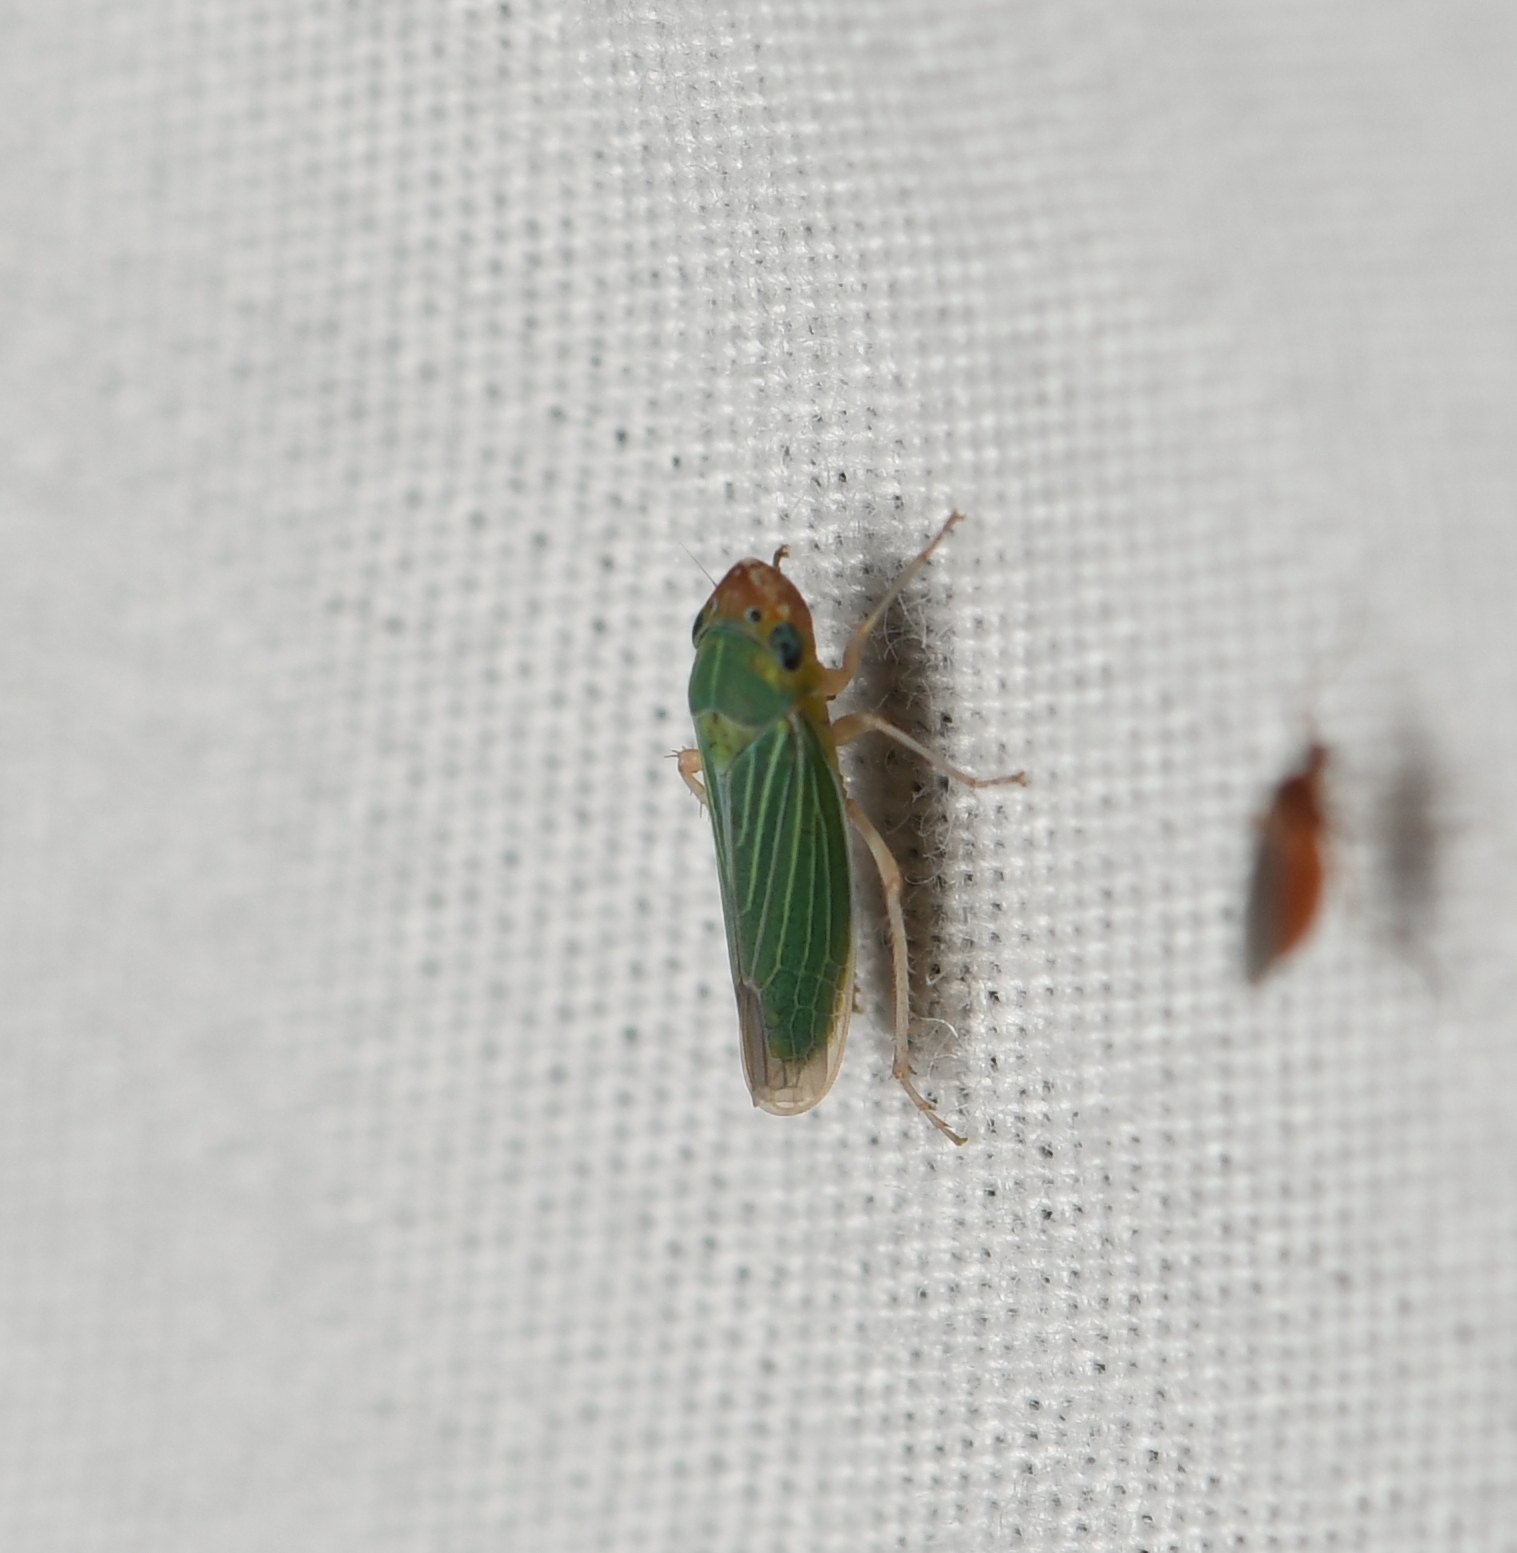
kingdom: Animalia
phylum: Arthropoda
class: Insecta
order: Hemiptera
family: Cicadellidae
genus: Xyphon
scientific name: Xyphon nudum
